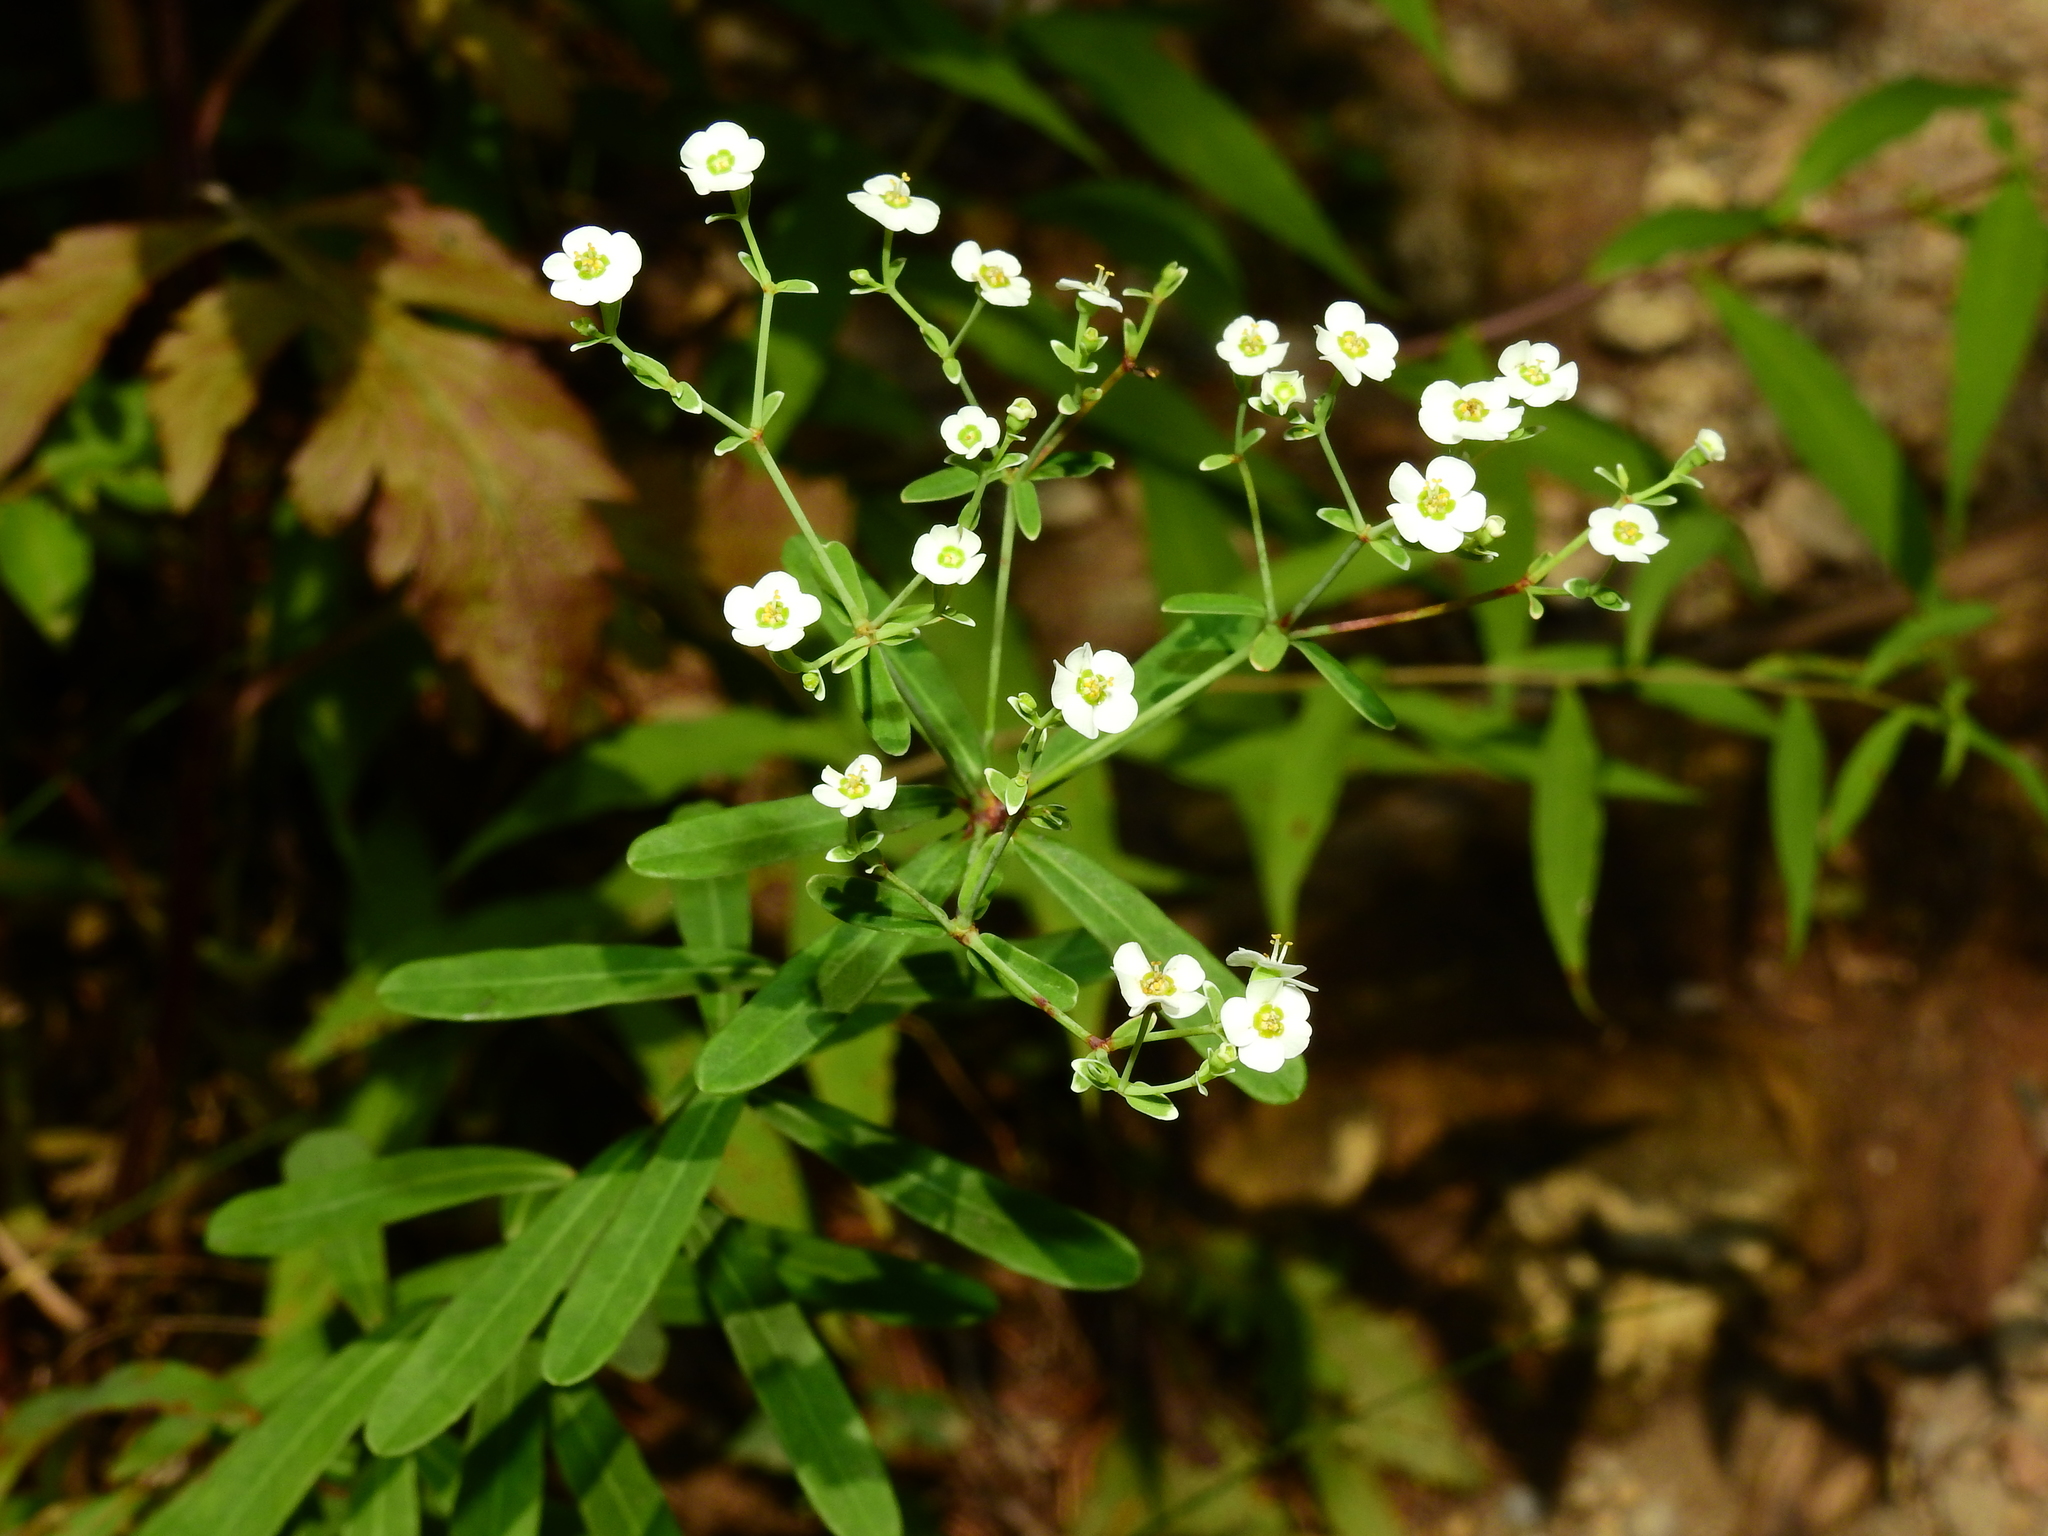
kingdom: Plantae
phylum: Tracheophyta
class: Magnoliopsida
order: Malpighiales
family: Euphorbiaceae
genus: Euphorbia
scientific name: Euphorbia corollata
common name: Flowering spurge
